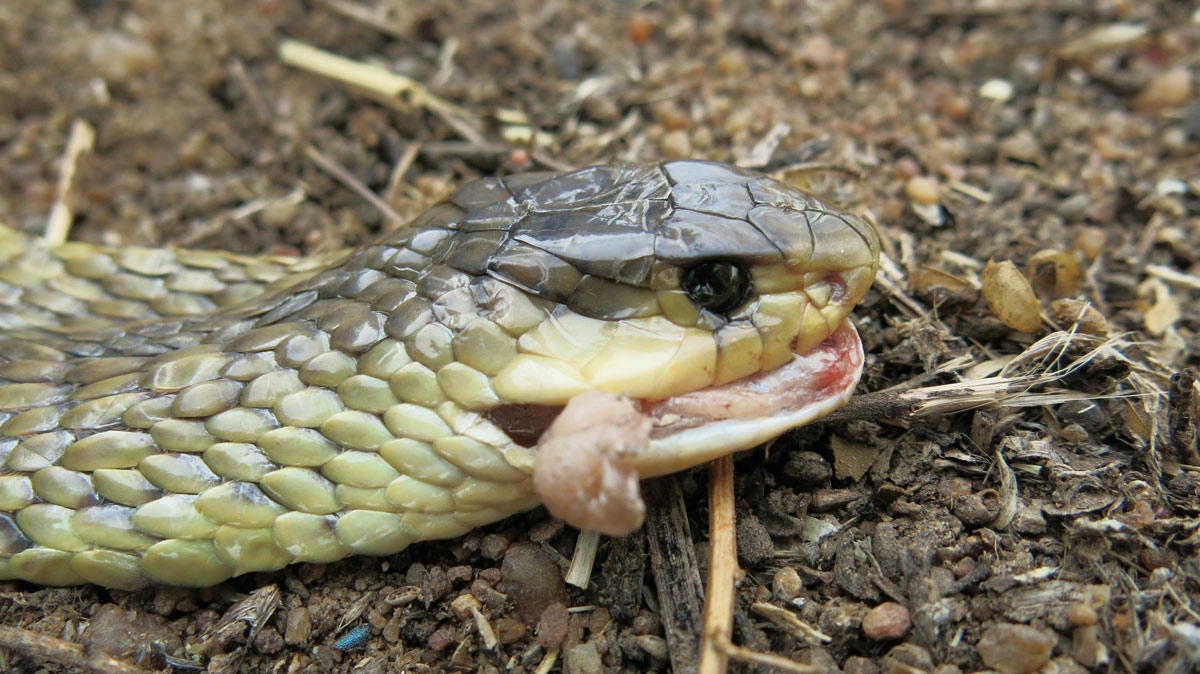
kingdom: Animalia
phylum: Chordata
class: Squamata
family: Elapidae
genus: Naja
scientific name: Naja annulifera
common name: Snouted cobra
